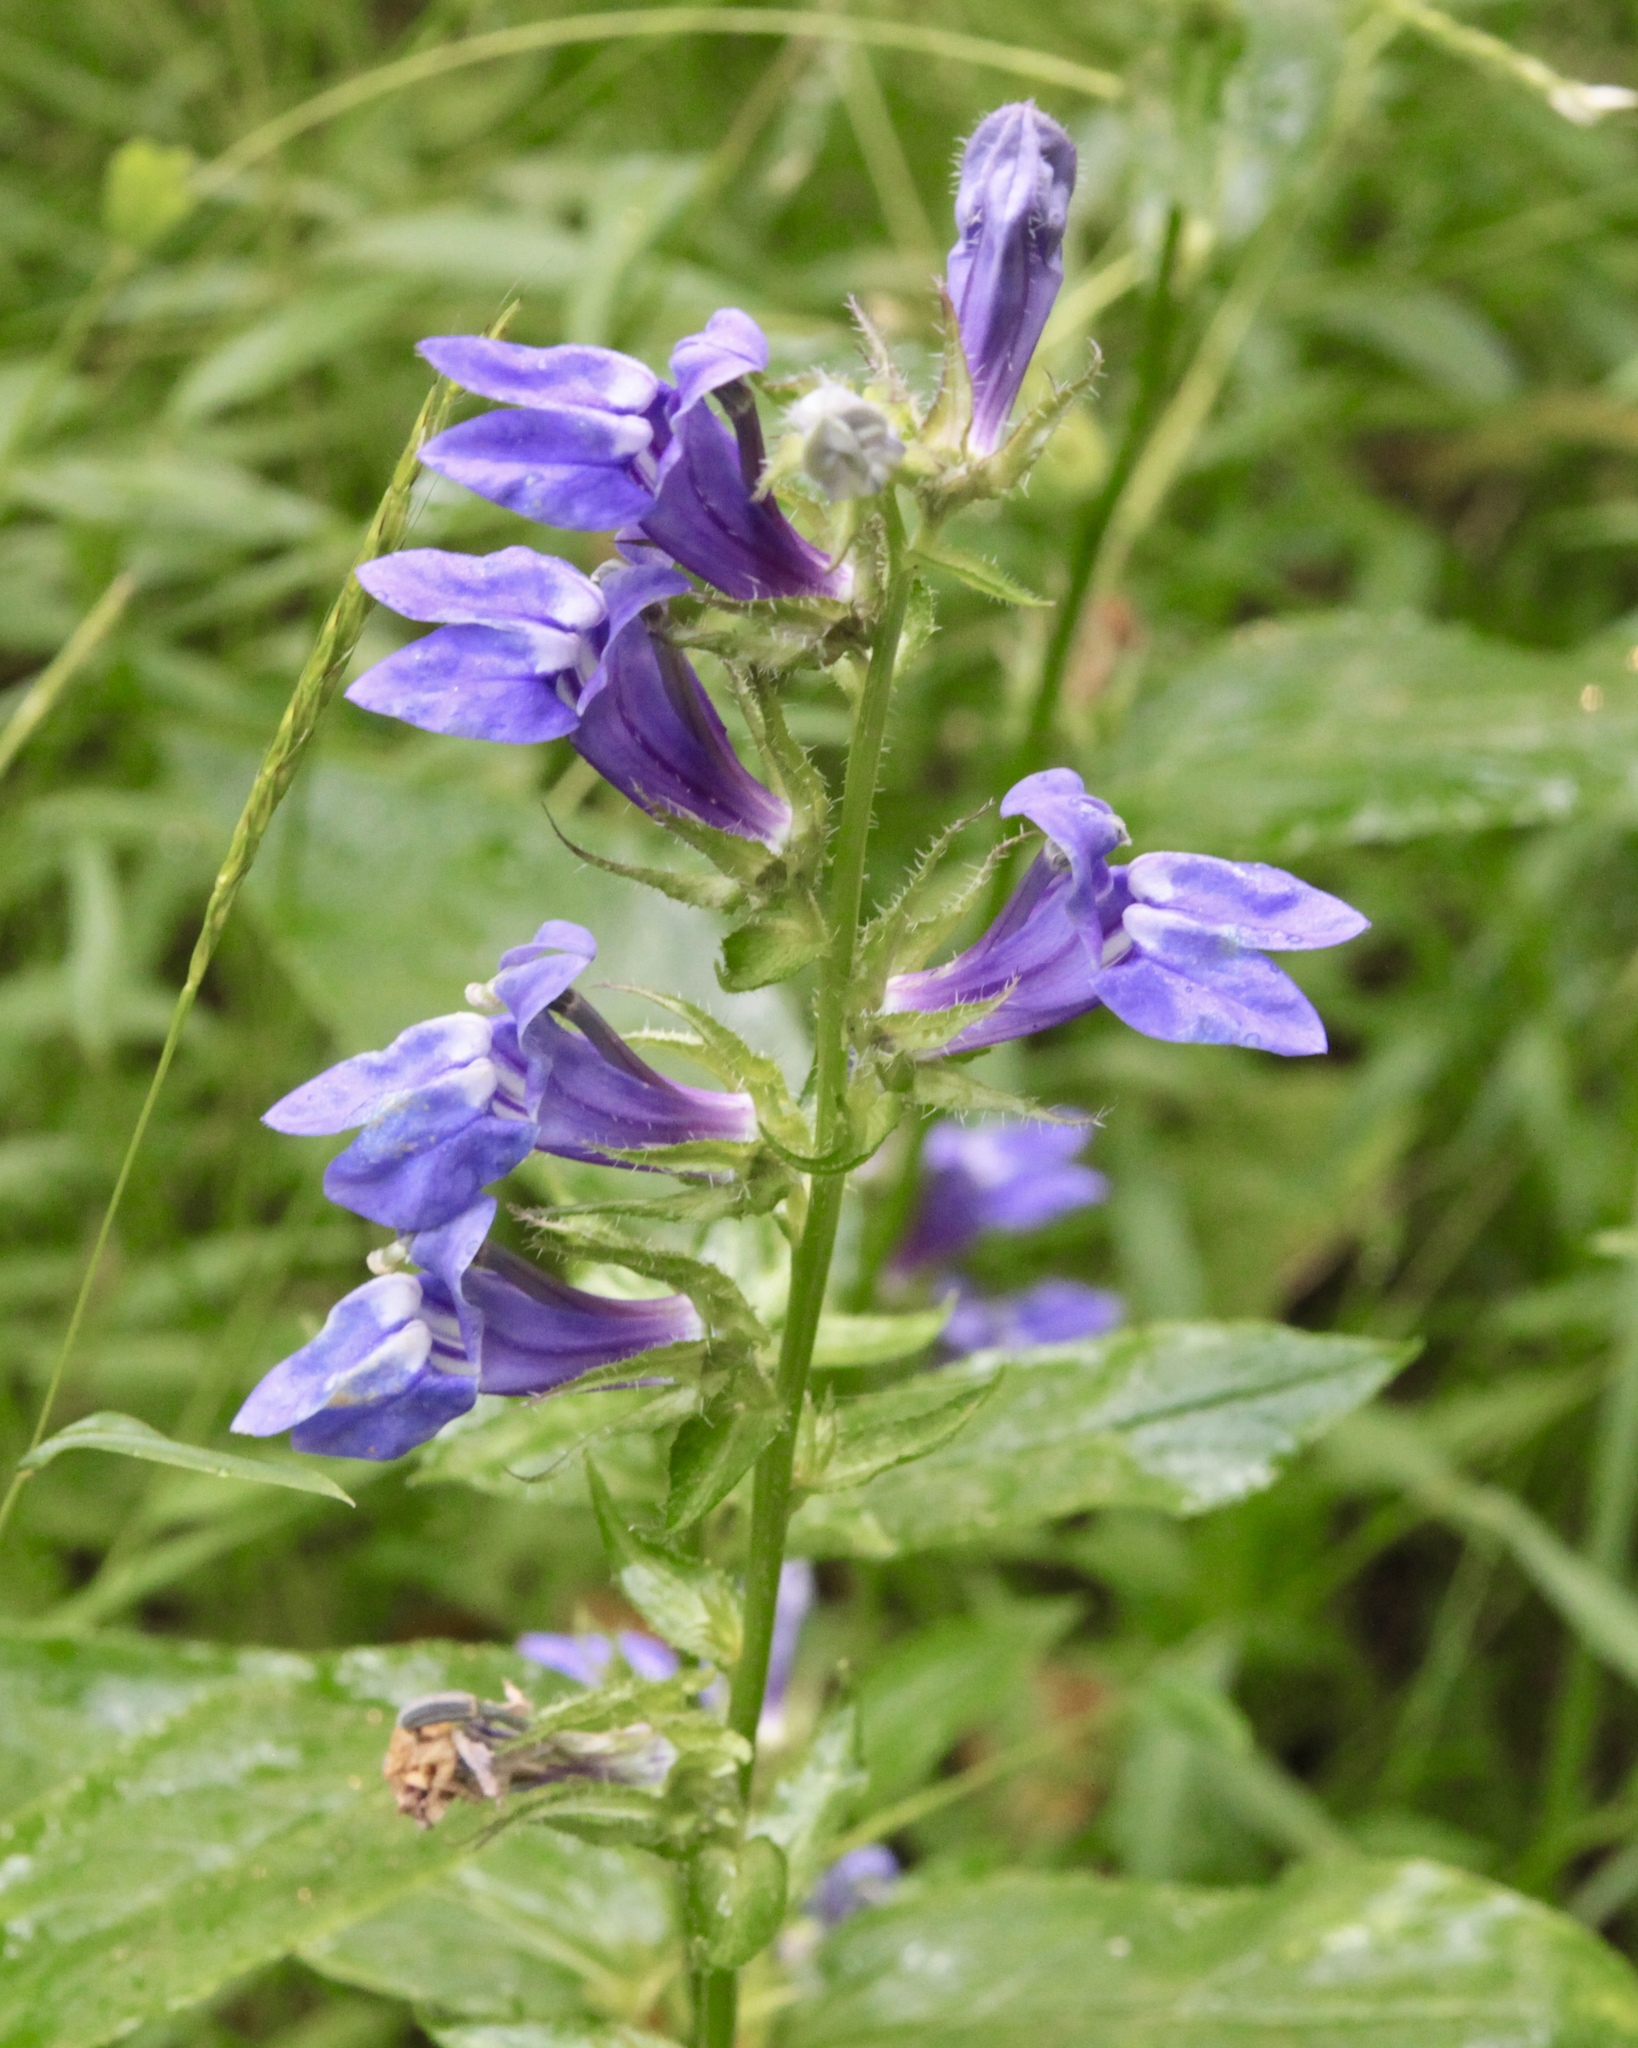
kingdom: Plantae
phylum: Tracheophyta
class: Magnoliopsida
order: Asterales
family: Campanulaceae
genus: Lobelia
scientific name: Lobelia siphilitica
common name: Great lobelia
